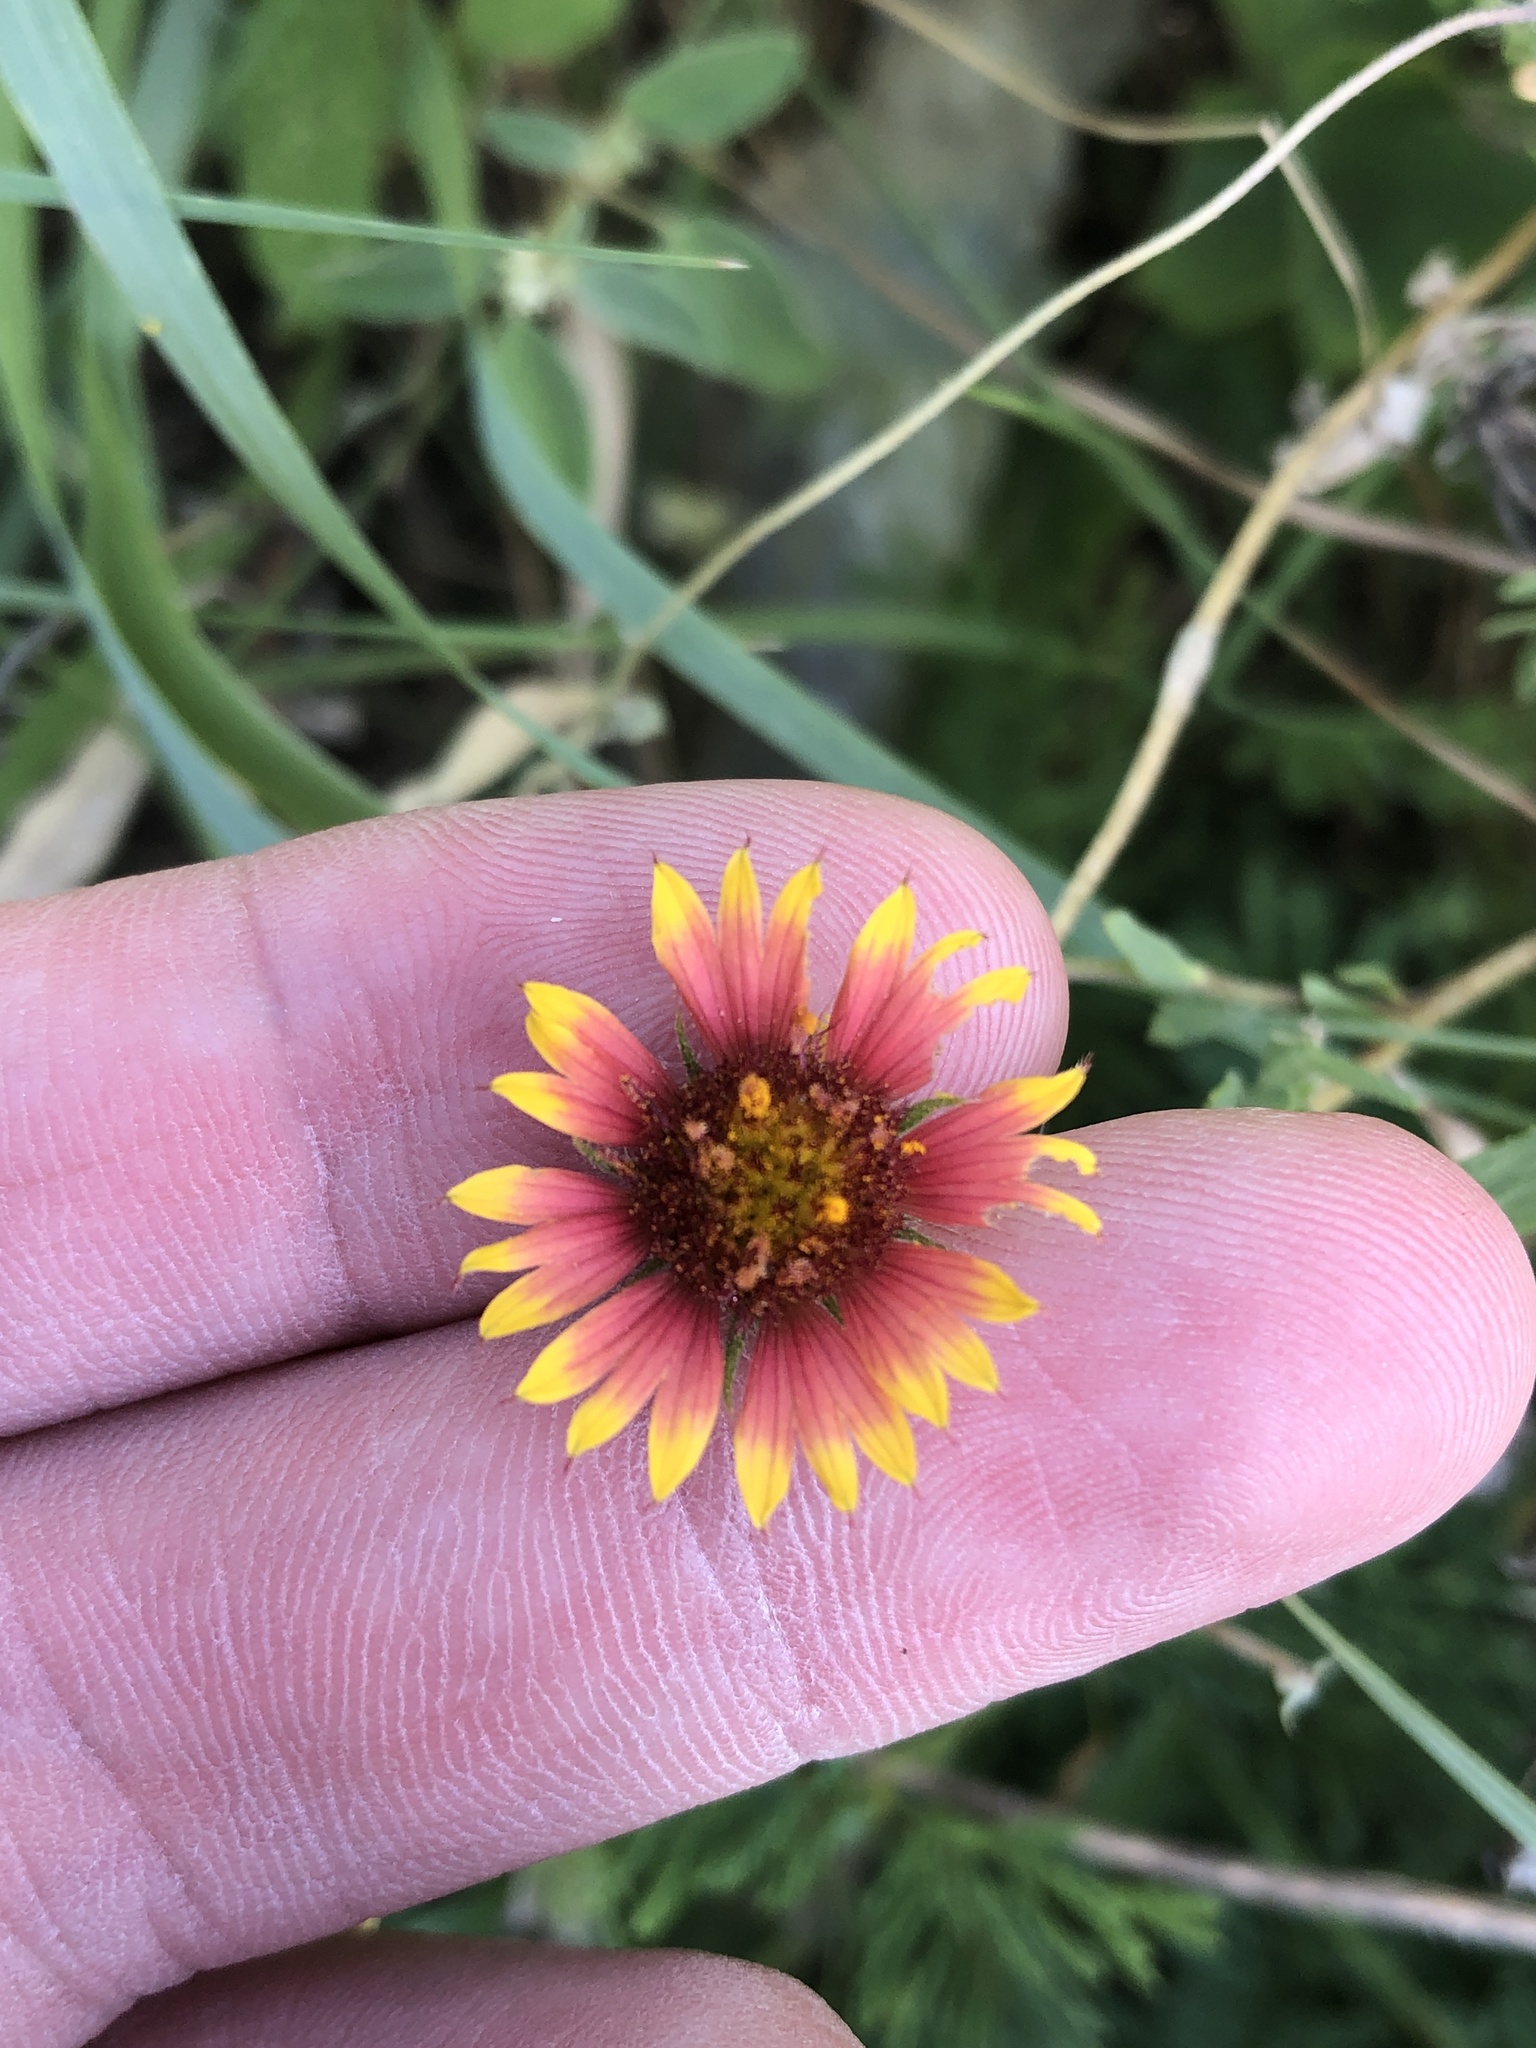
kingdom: Plantae
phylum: Tracheophyta
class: Magnoliopsida
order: Asterales
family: Asteraceae
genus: Gaillardia
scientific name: Gaillardia pulchella
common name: Firewheel
